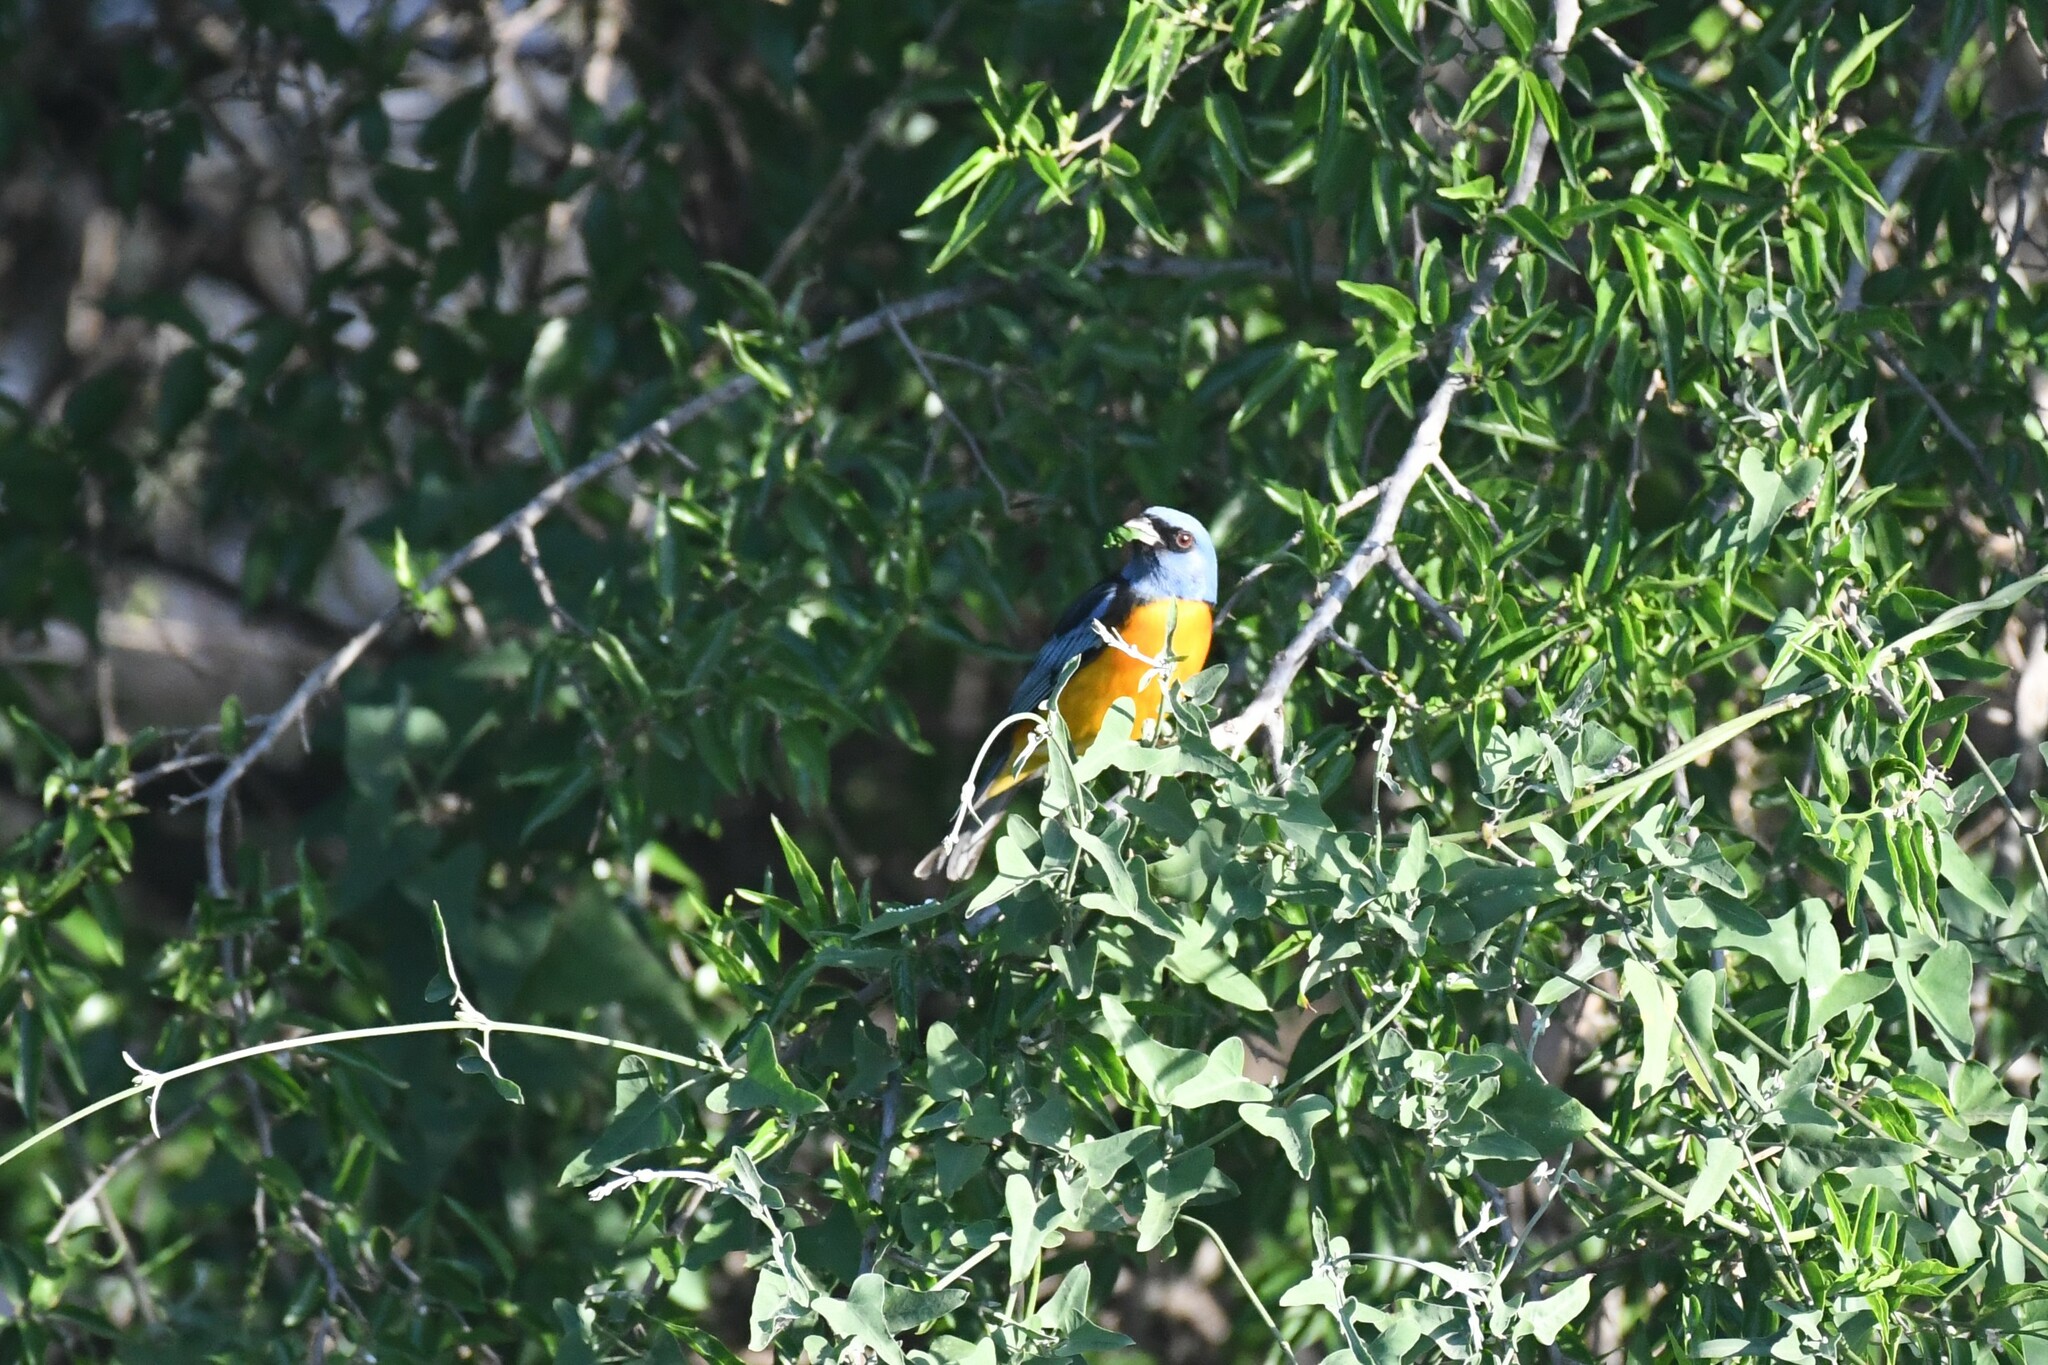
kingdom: Animalia
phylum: Chordata
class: Aves
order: Passeriformes
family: Thraupidae
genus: Rauenia
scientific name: Rauenia bonariensis
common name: Blue-and-yellow tanager
